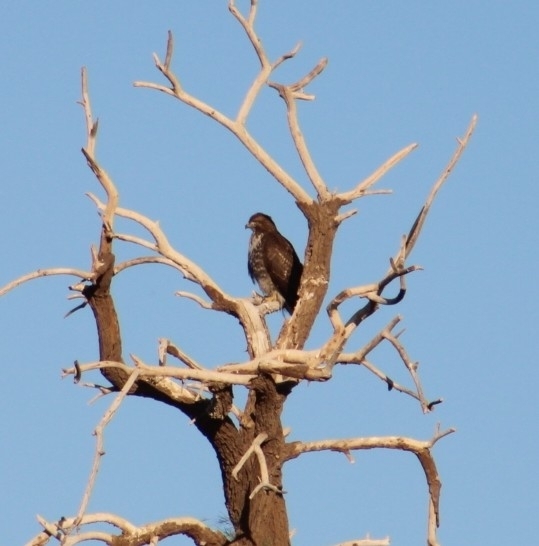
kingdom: Animalia
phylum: Chordata
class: Aves
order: Accipitriformes
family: Accipitridae
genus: Buteo
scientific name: Buteo jamaicensis
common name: Red-tailed hawk
